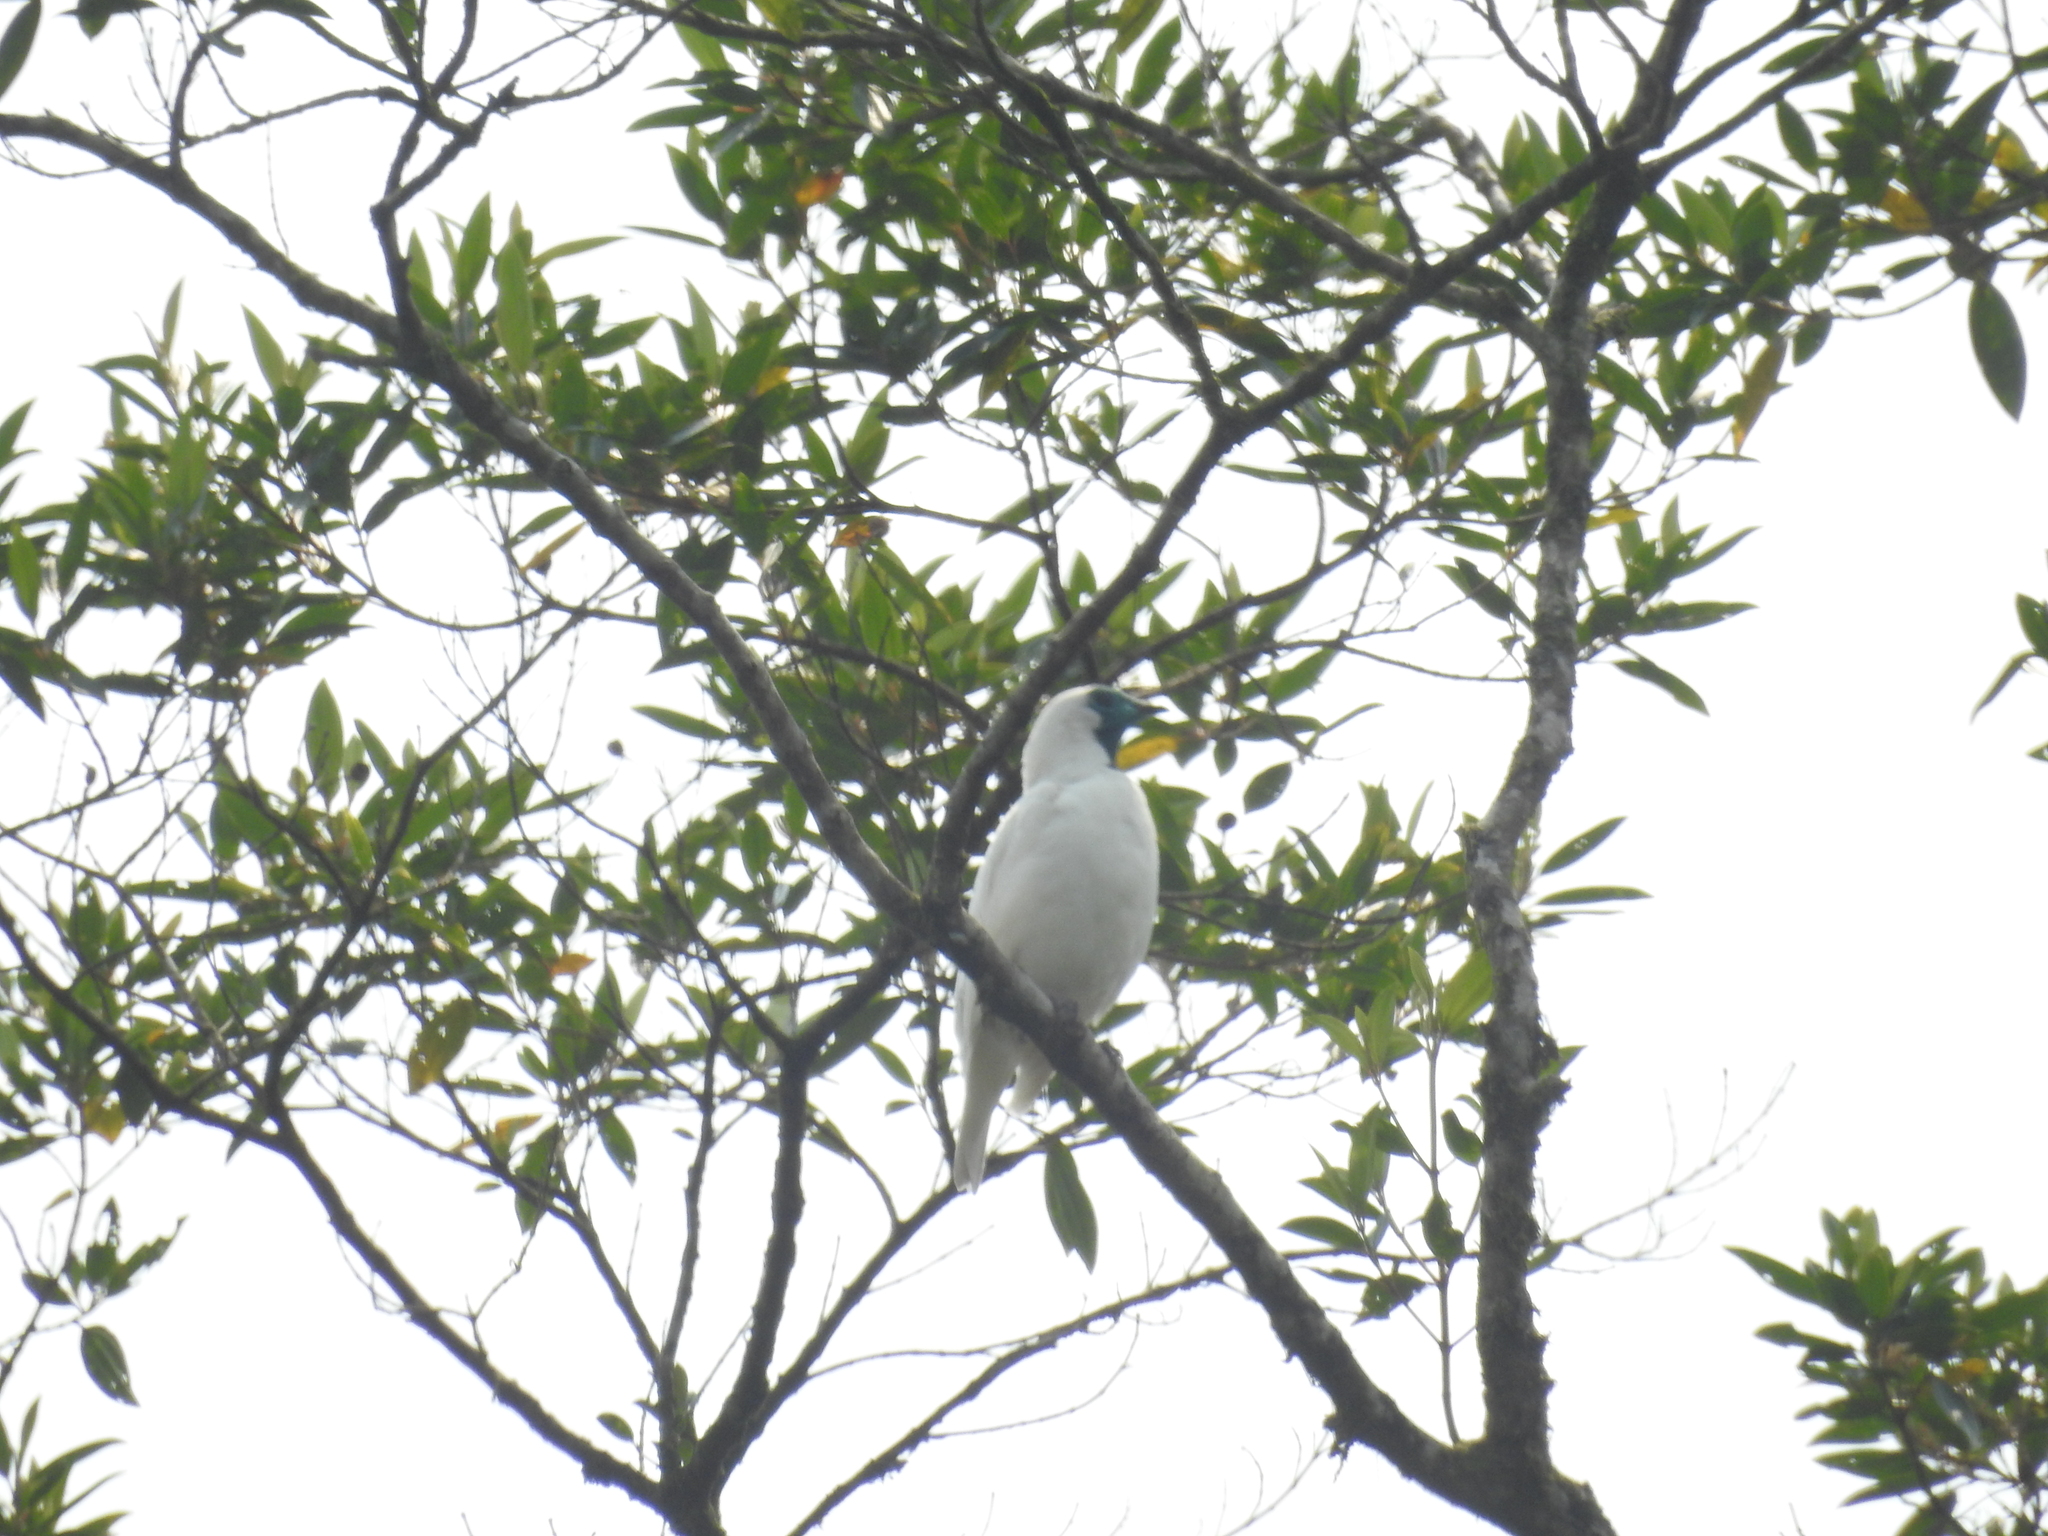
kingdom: Animalia
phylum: Chordata
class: Aves
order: Passeriformes
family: Cotingidae
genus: Procnias
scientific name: Procnias nudicollis
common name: Bare-throated bellbird
